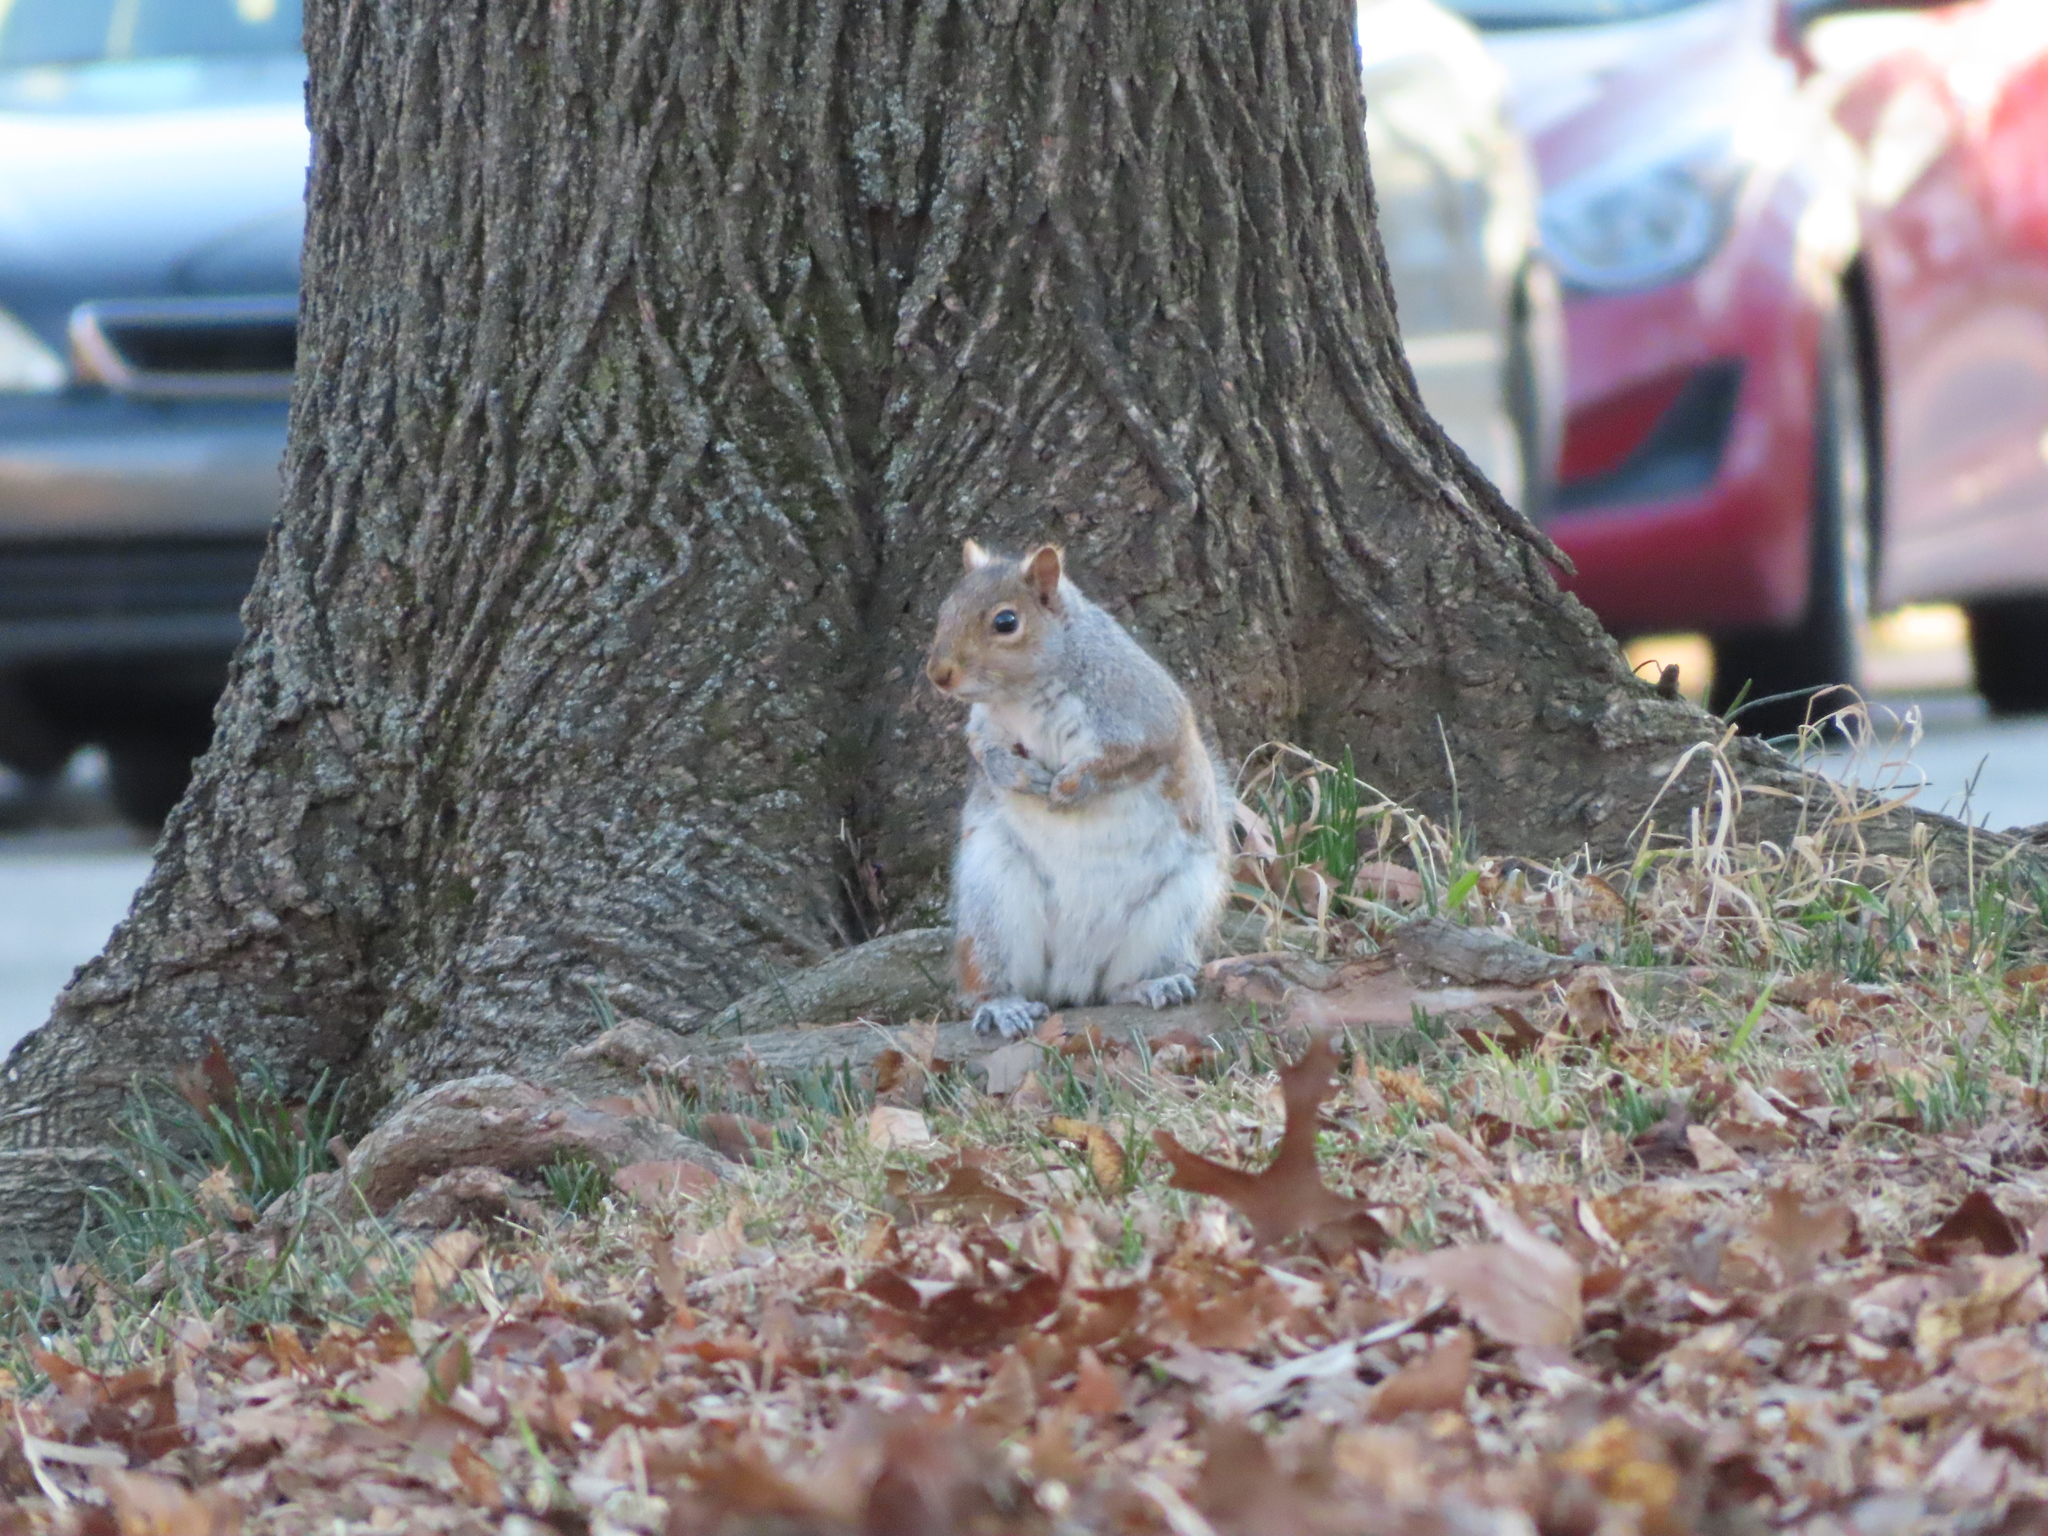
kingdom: Animalia
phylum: Chordata
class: Mammalia
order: Rodentia
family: Sciuridae
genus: Sciurus
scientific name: Sciurus carolinensis
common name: Eastern gray squirrel
